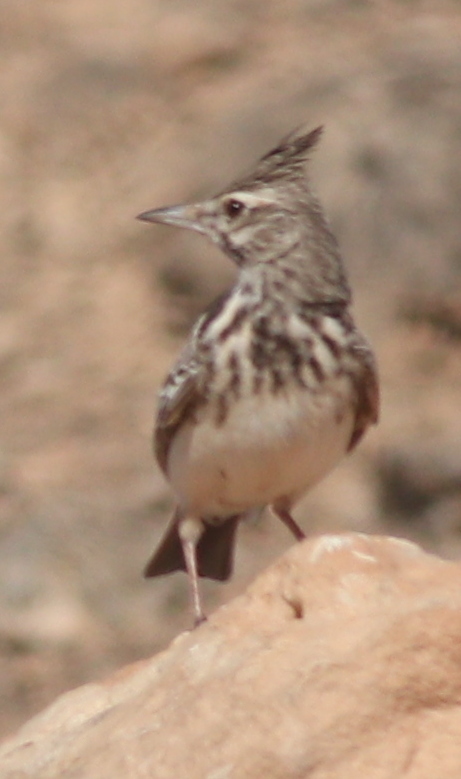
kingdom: Animalia
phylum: Chordata
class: Aves
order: Passeriformes
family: Alaudidae
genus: Galerida
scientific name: Galerida cristata
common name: Crested lark
